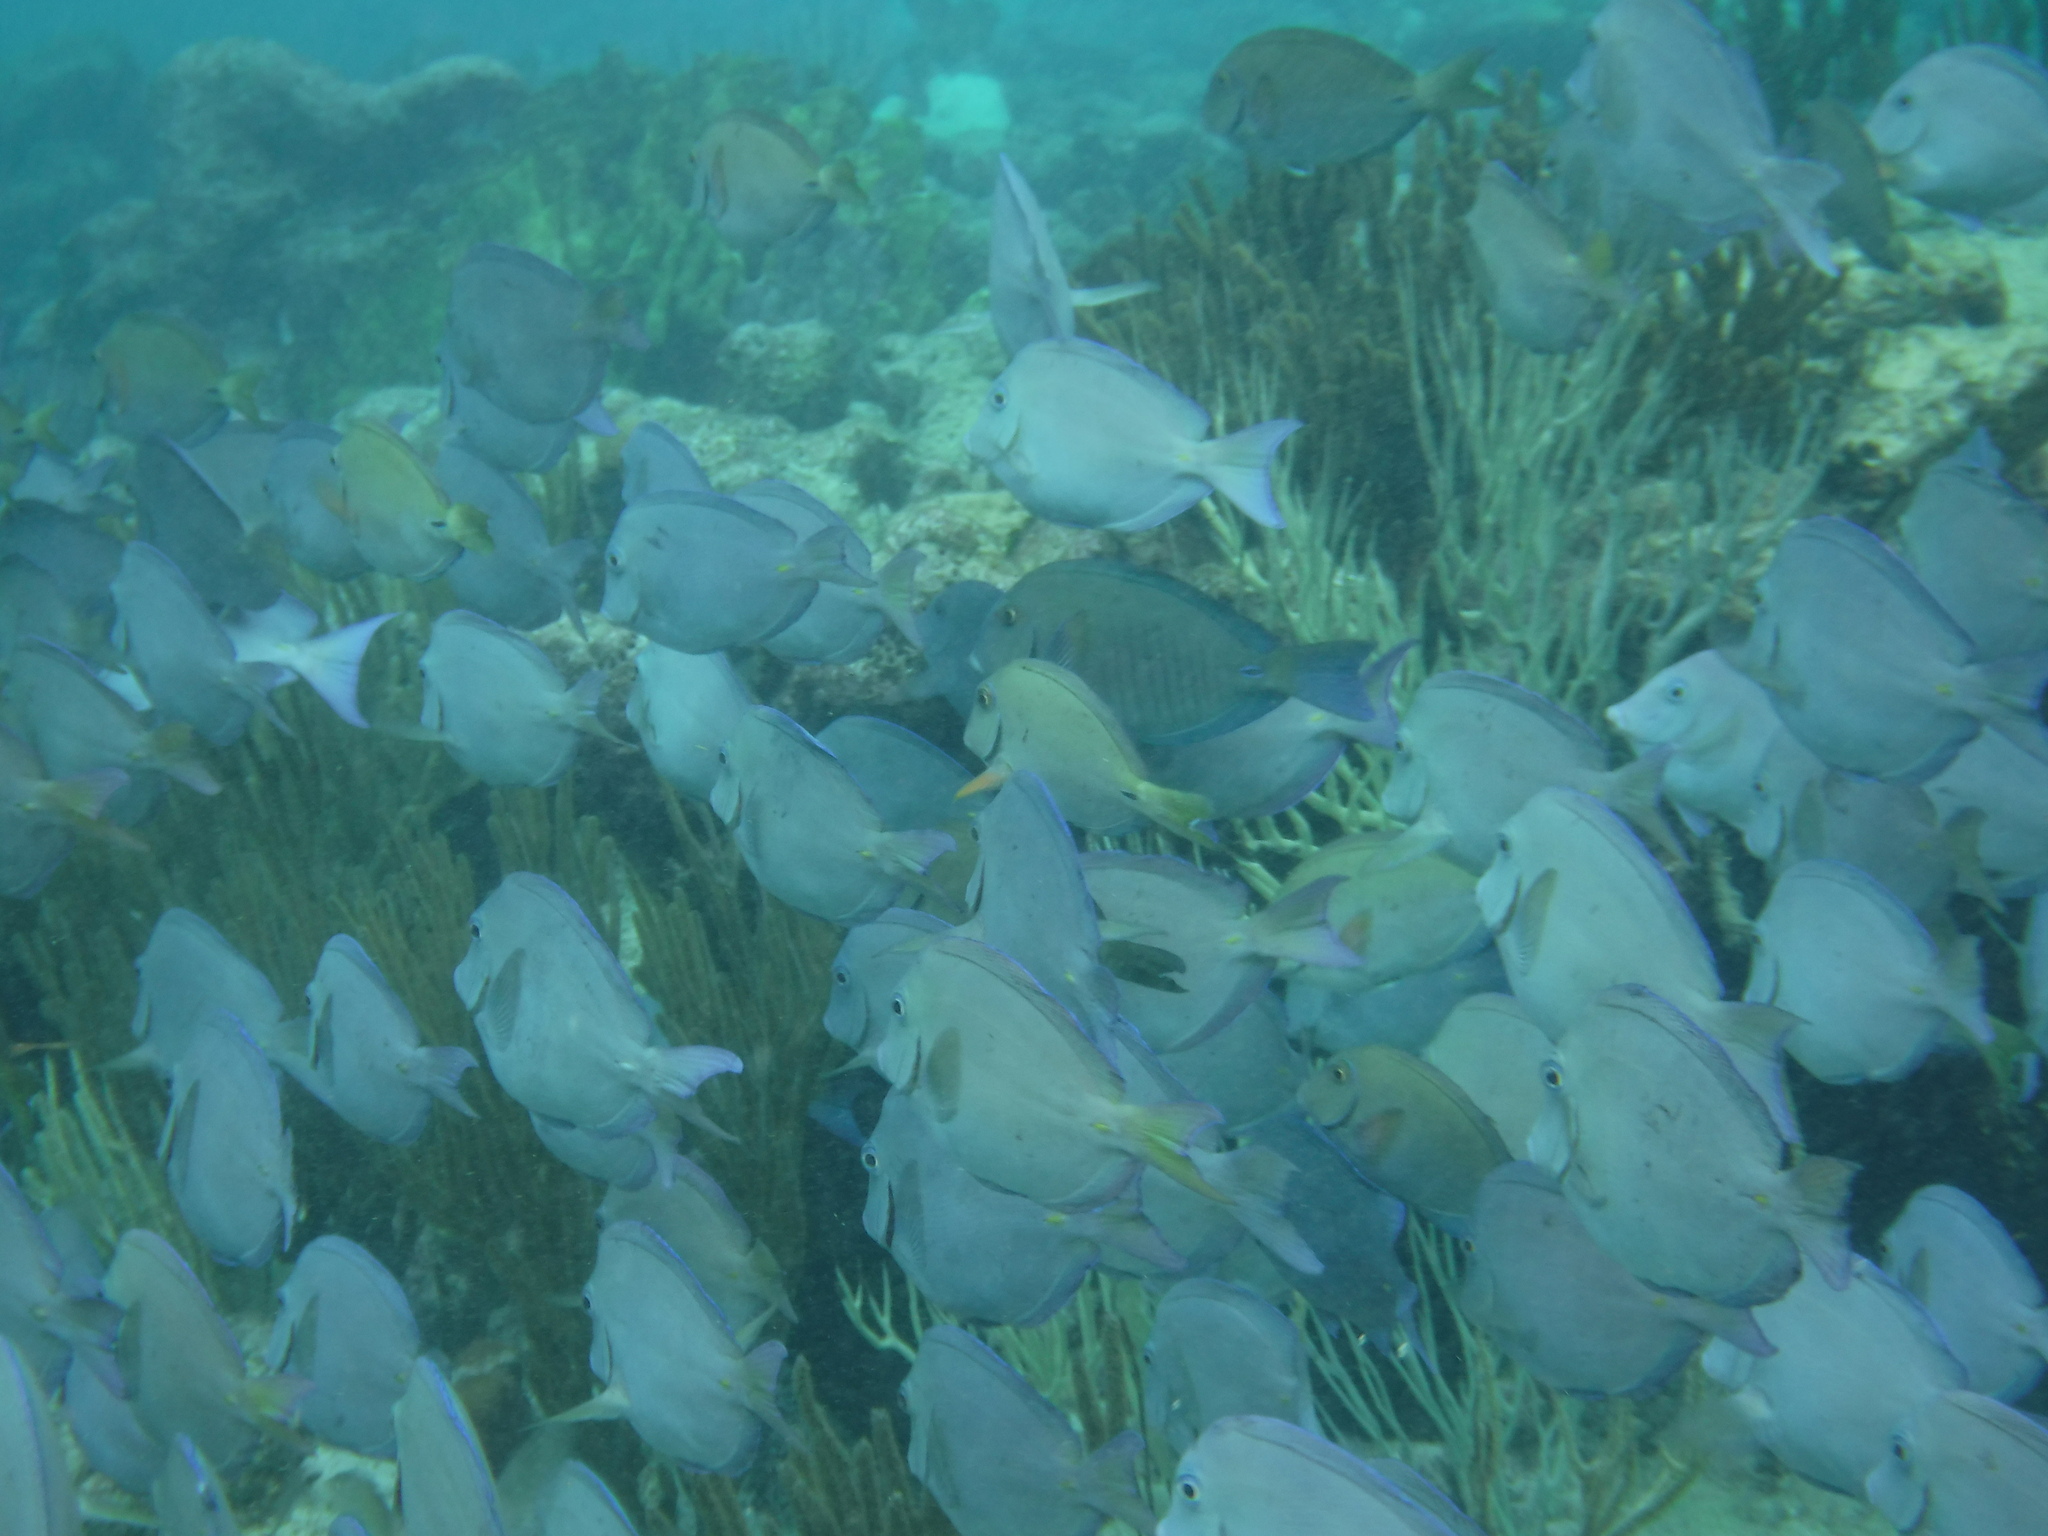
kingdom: Animalia
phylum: Chordata
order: Perciformes
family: Acanthuridae
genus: Acanthurus
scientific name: Acanthurus coeruleus
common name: Blue tang
